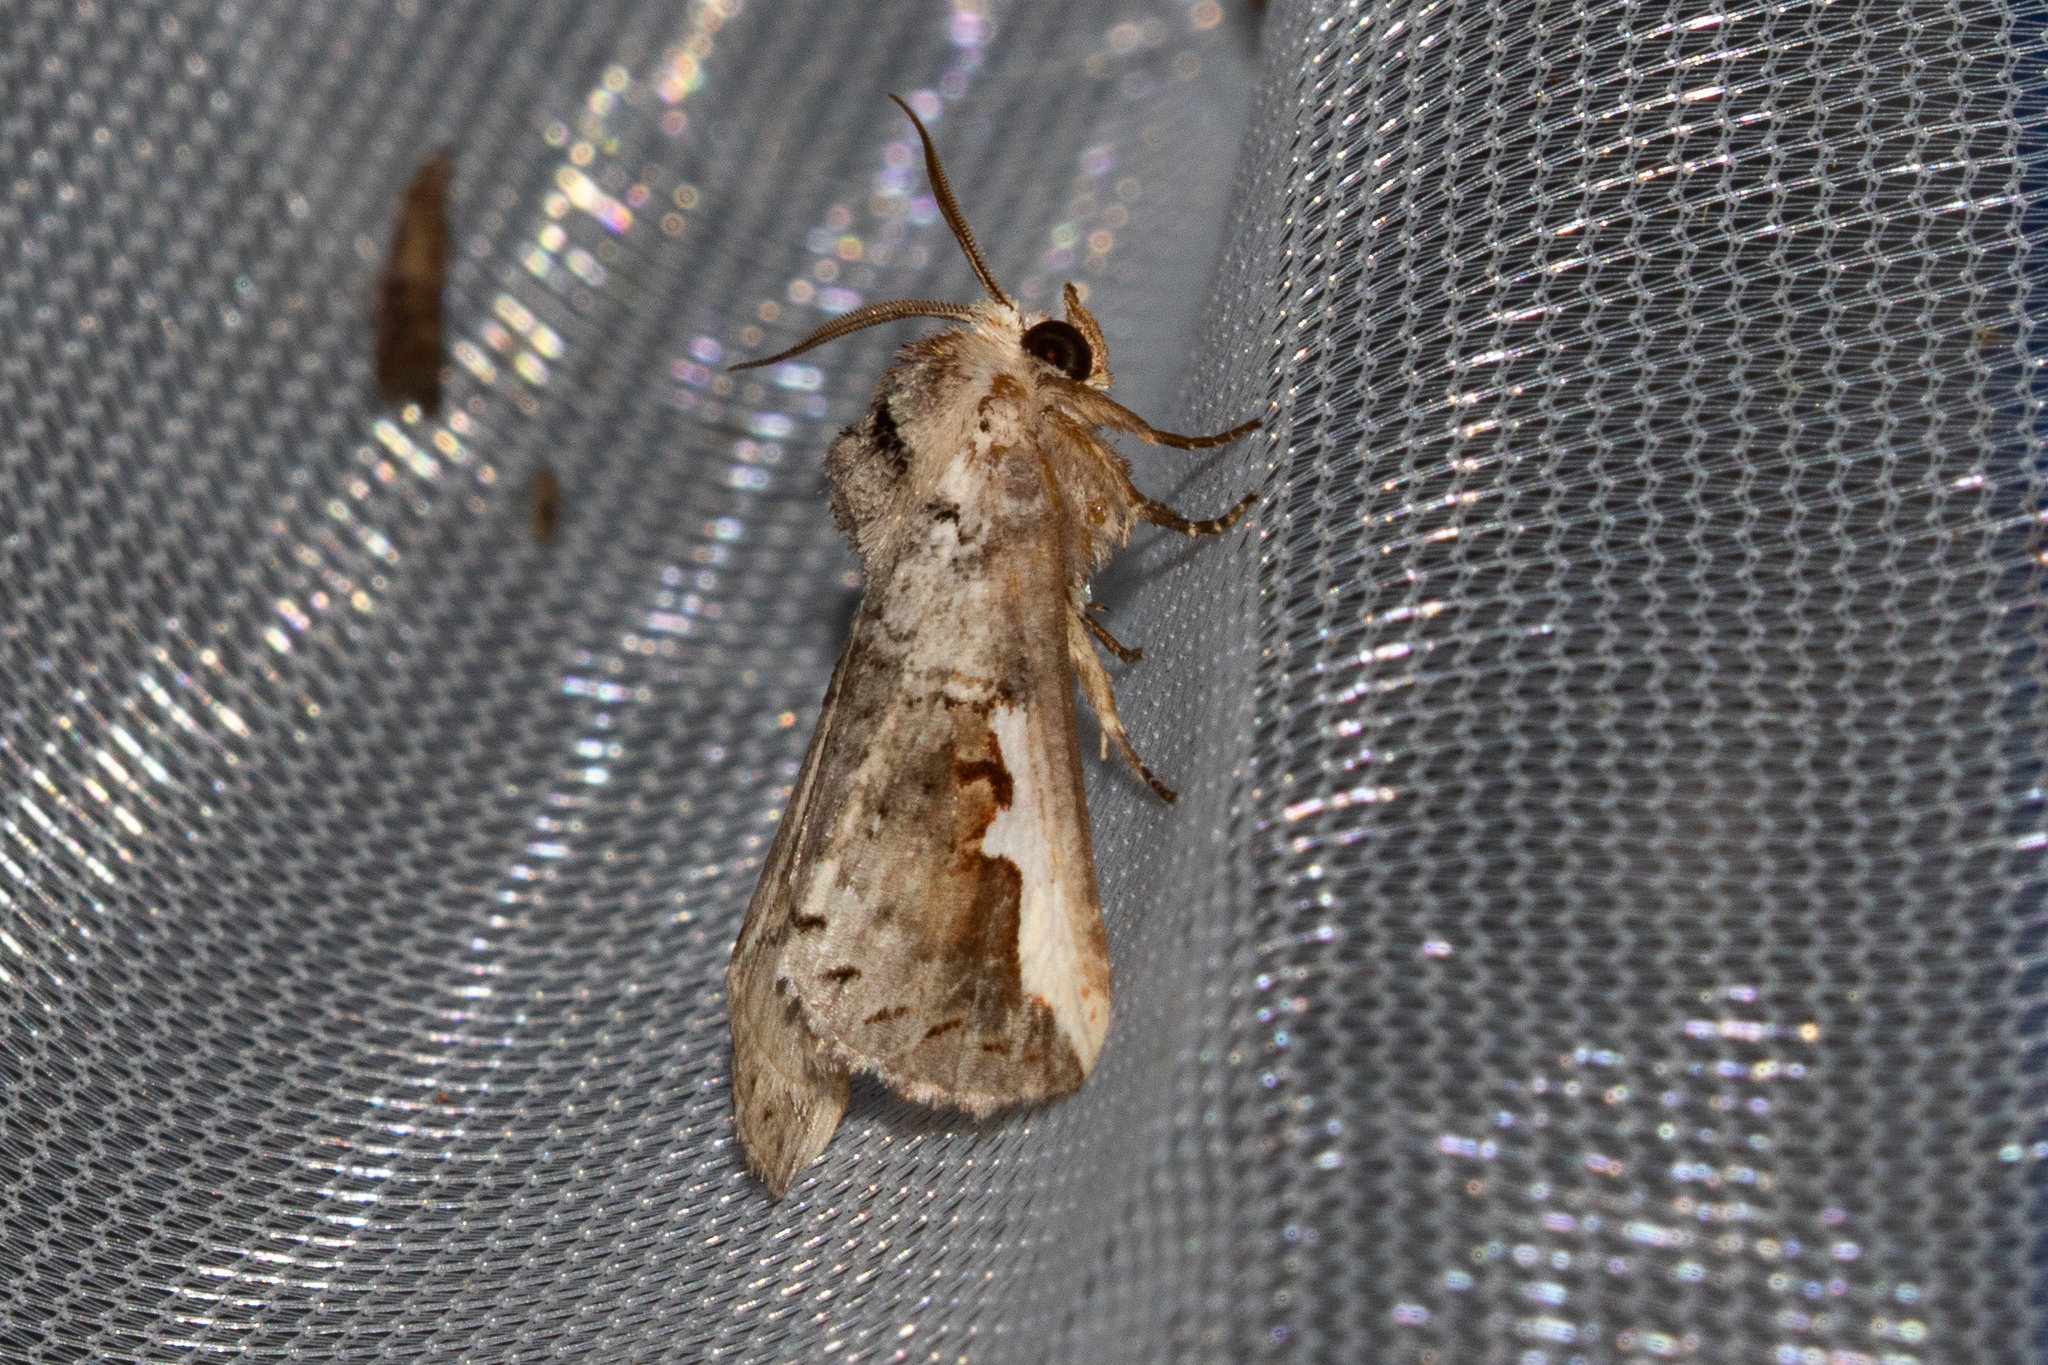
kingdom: Animalia
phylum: Arthropoda
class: Insecta
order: Lepidoptera
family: Notodontidae
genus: Symmerista
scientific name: Symmerista
